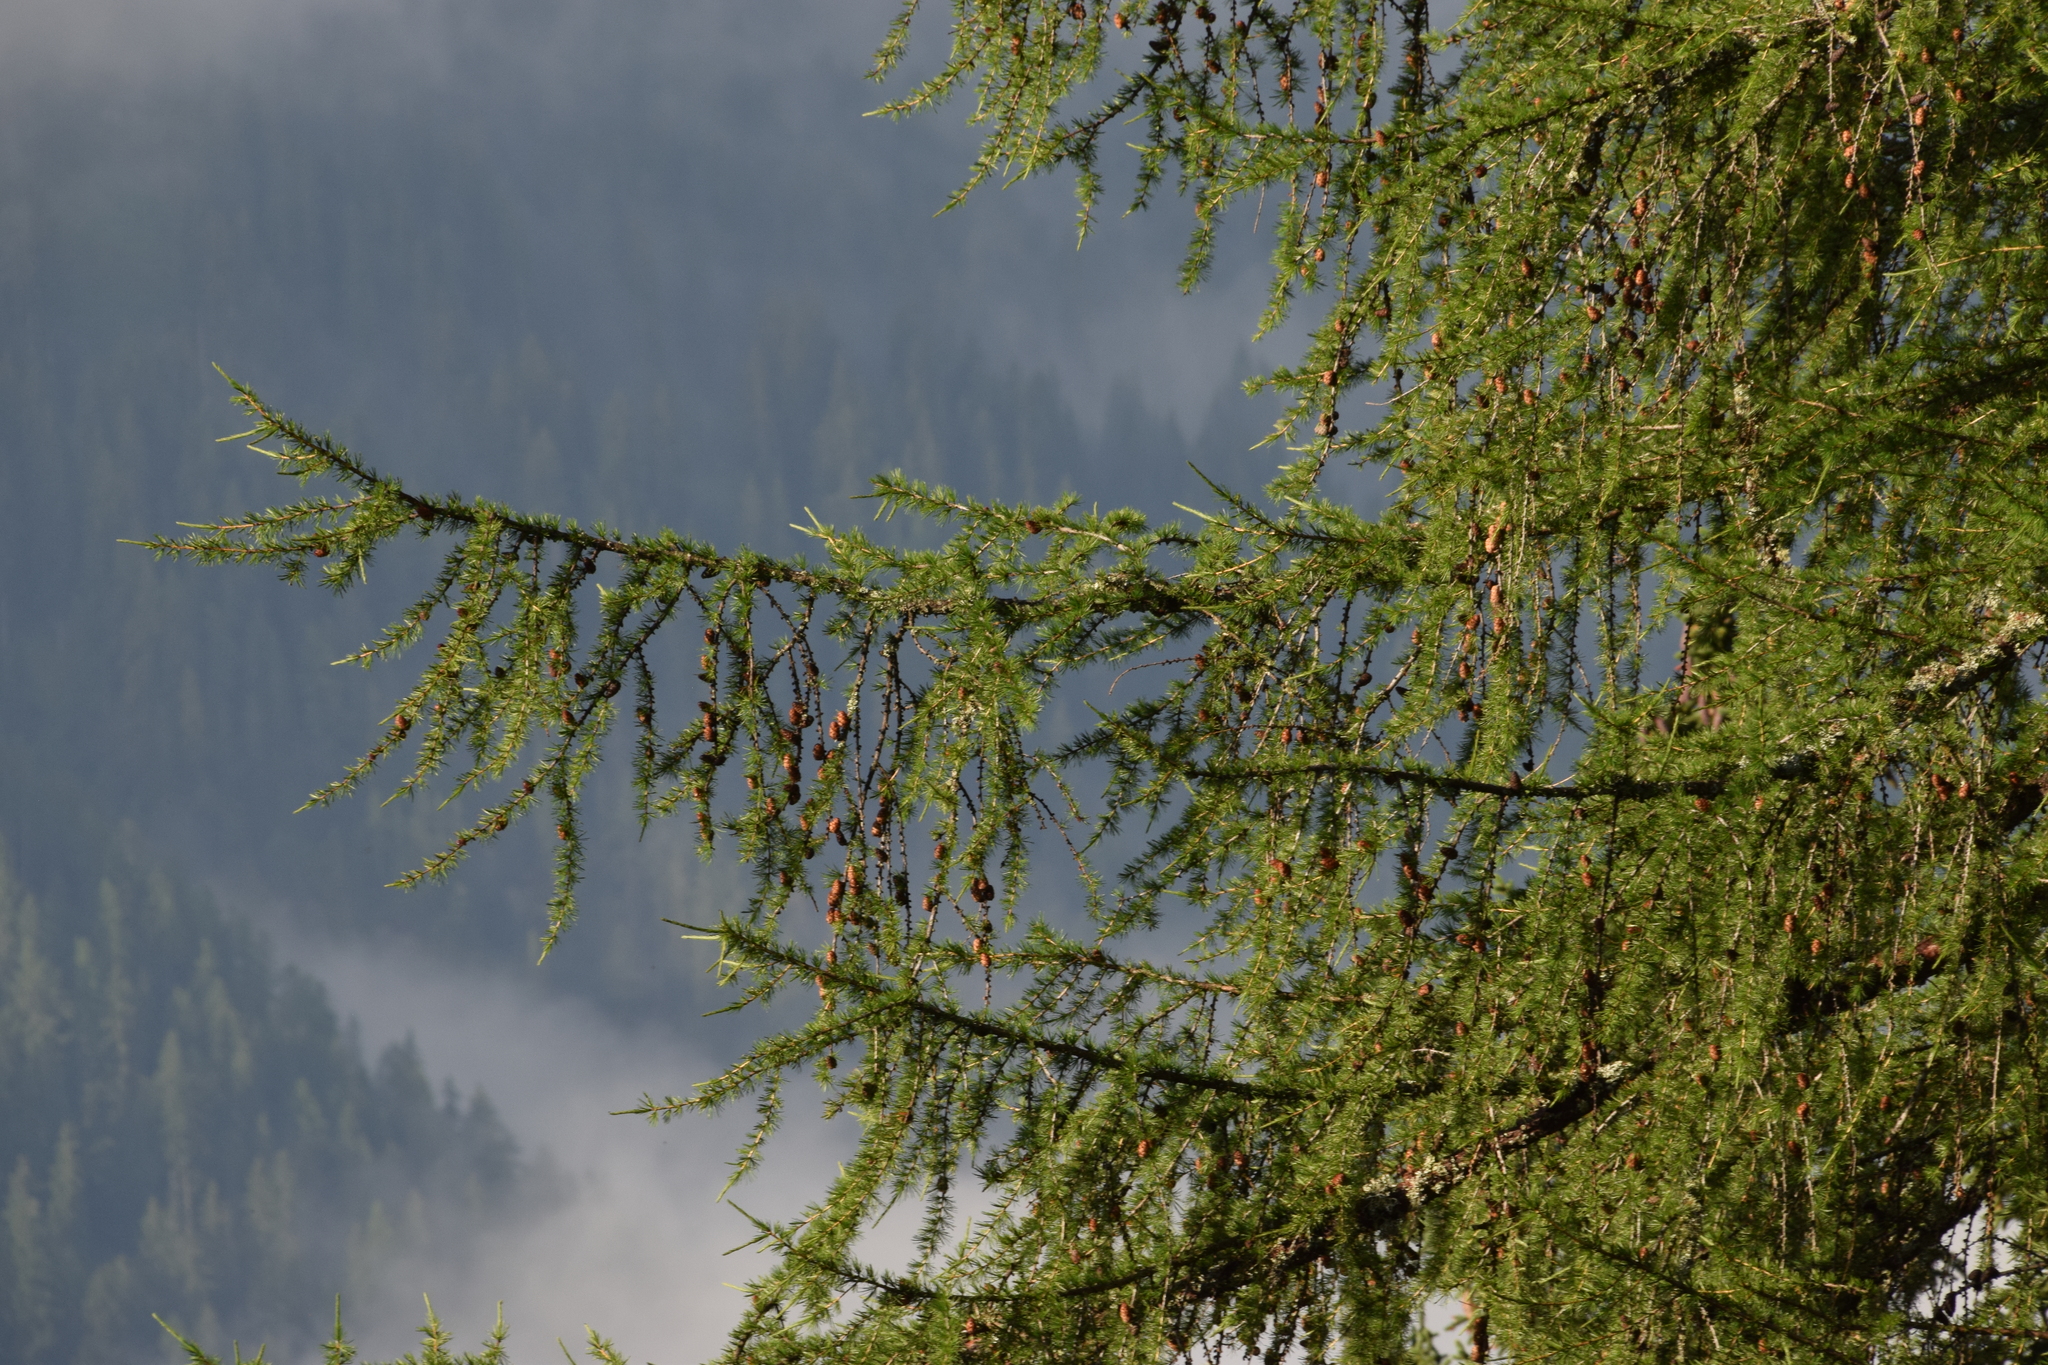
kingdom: Plantae
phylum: Tracheophyta
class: Pinopsida
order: Pinales
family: Pinaceae
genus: Larix
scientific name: Larix decidua
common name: European larch
